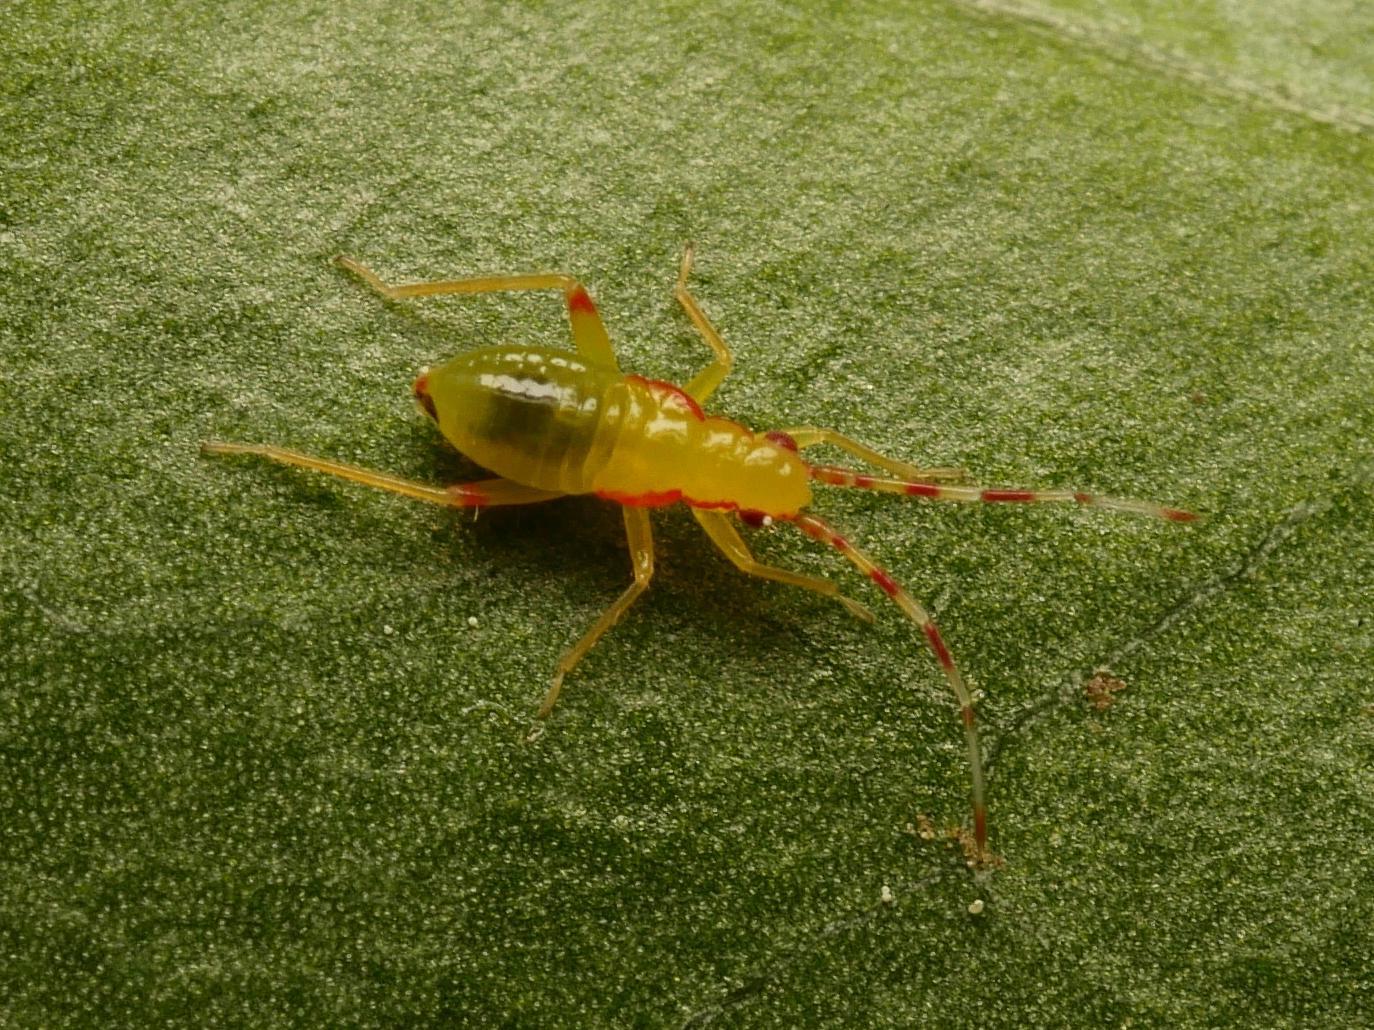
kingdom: Animalia
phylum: Arthropoda
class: Insecta
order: Hemiptera
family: Miridae
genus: Campyloneura
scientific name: Campyloneura virgula
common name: Predatory bug
